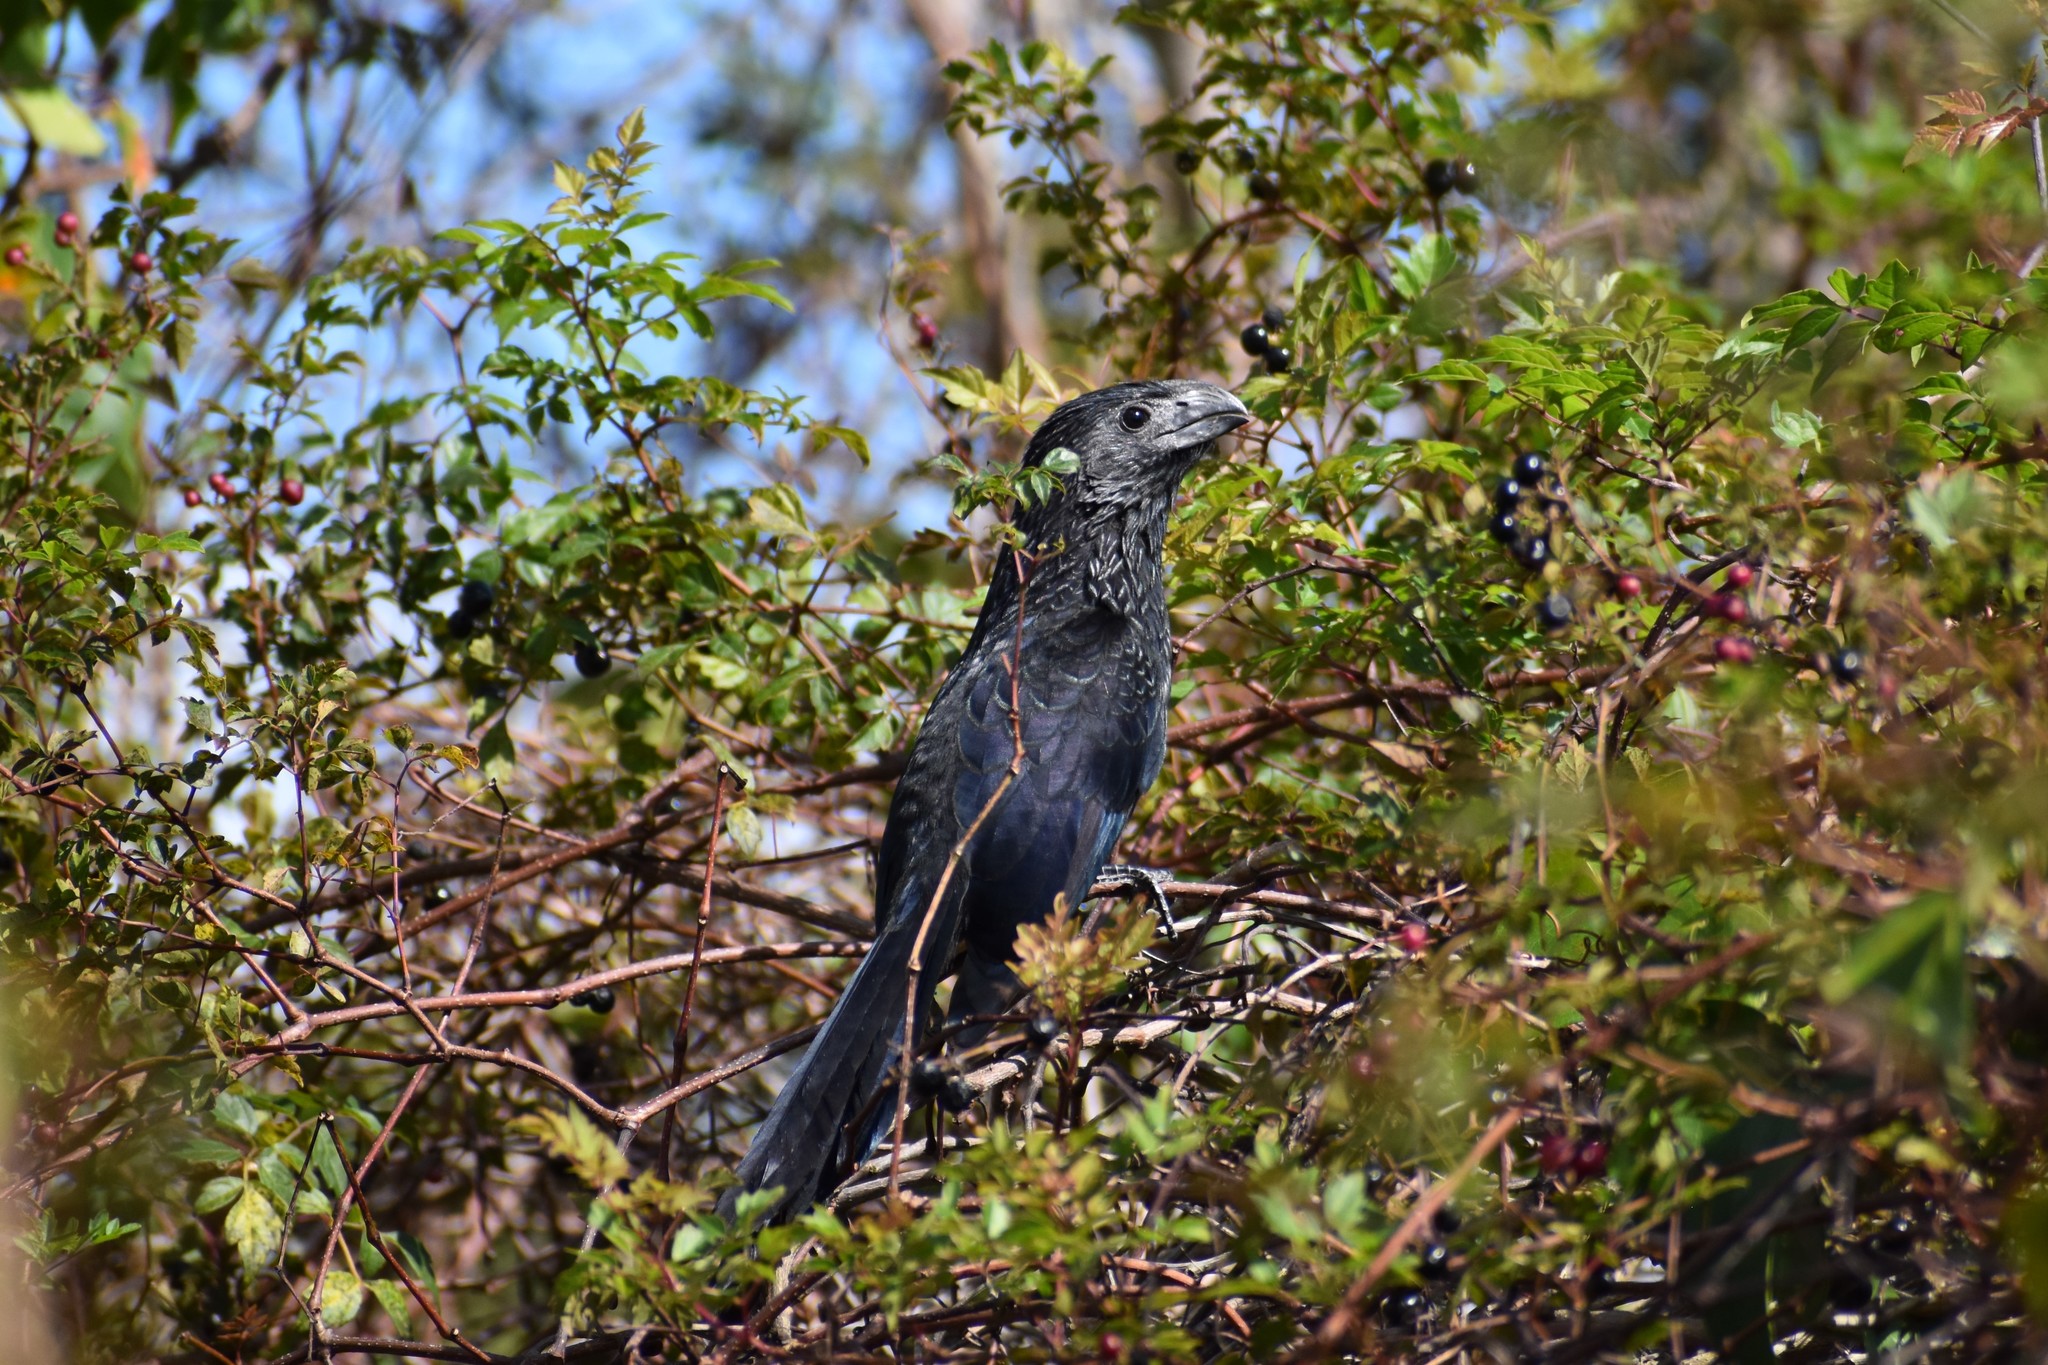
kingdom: Animalia
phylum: Chordata
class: Aves
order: Cuculiformes
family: Cuculidae
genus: Crotophaga
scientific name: Crotophaga sulcirostris
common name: Groove-billed ani
